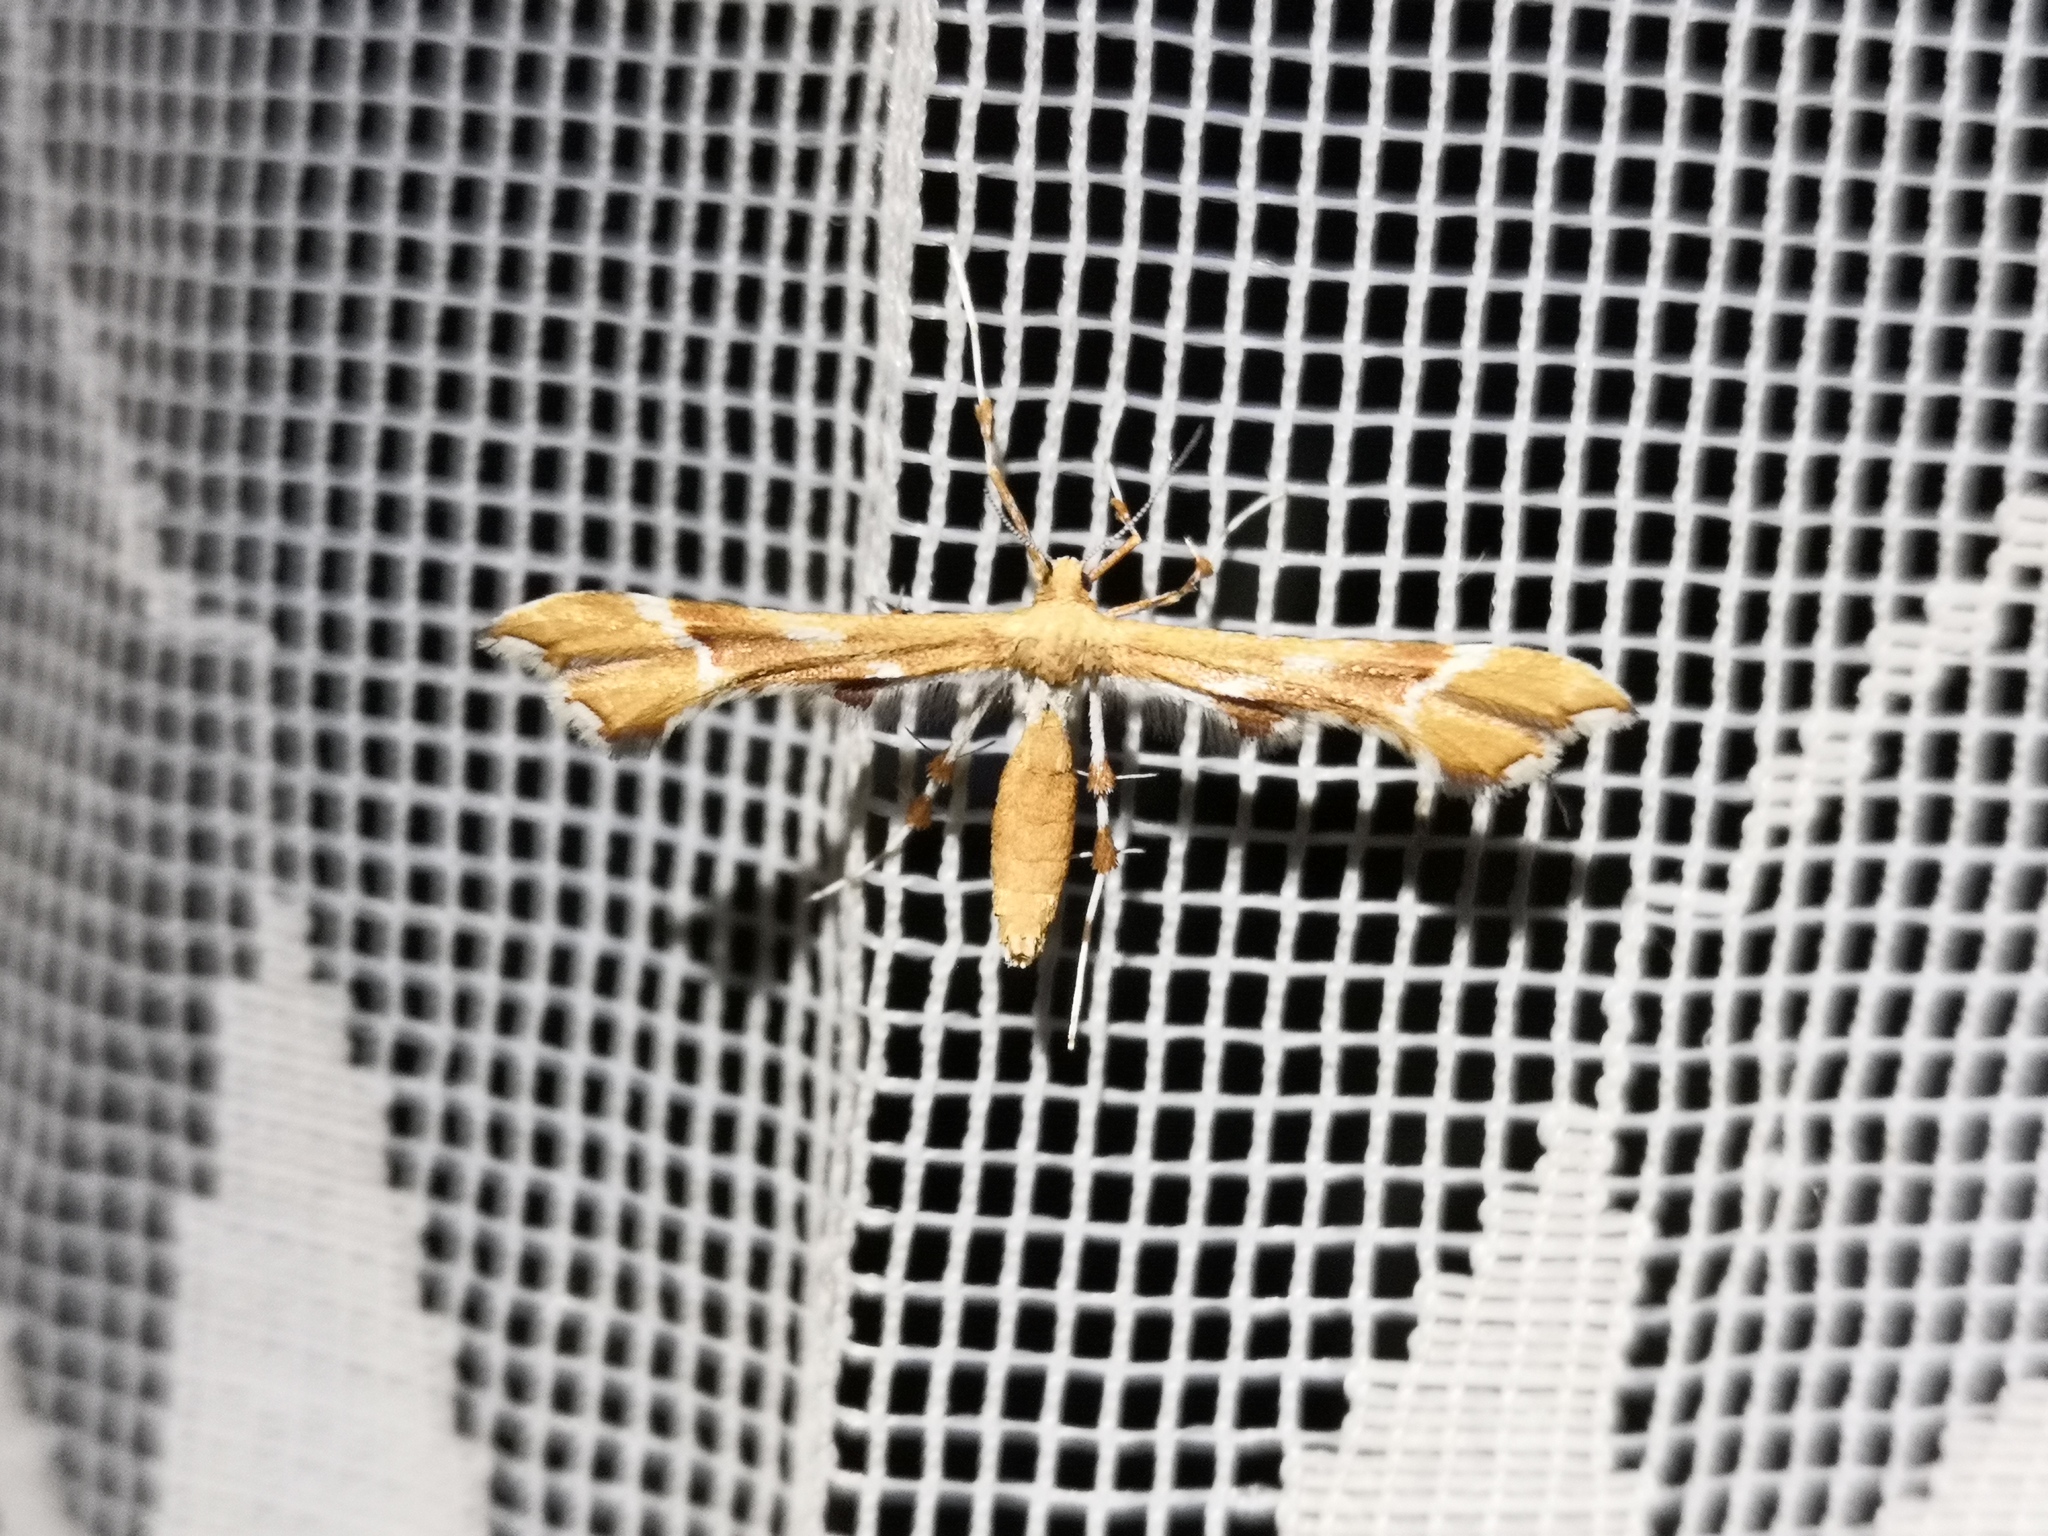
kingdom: Animalia
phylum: Arthropoda
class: Insecta
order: Lepidoptera
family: Pterophoridae
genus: Cnaemidophorus
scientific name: Cnaemidophorus rhododactyla
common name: Rose plume
